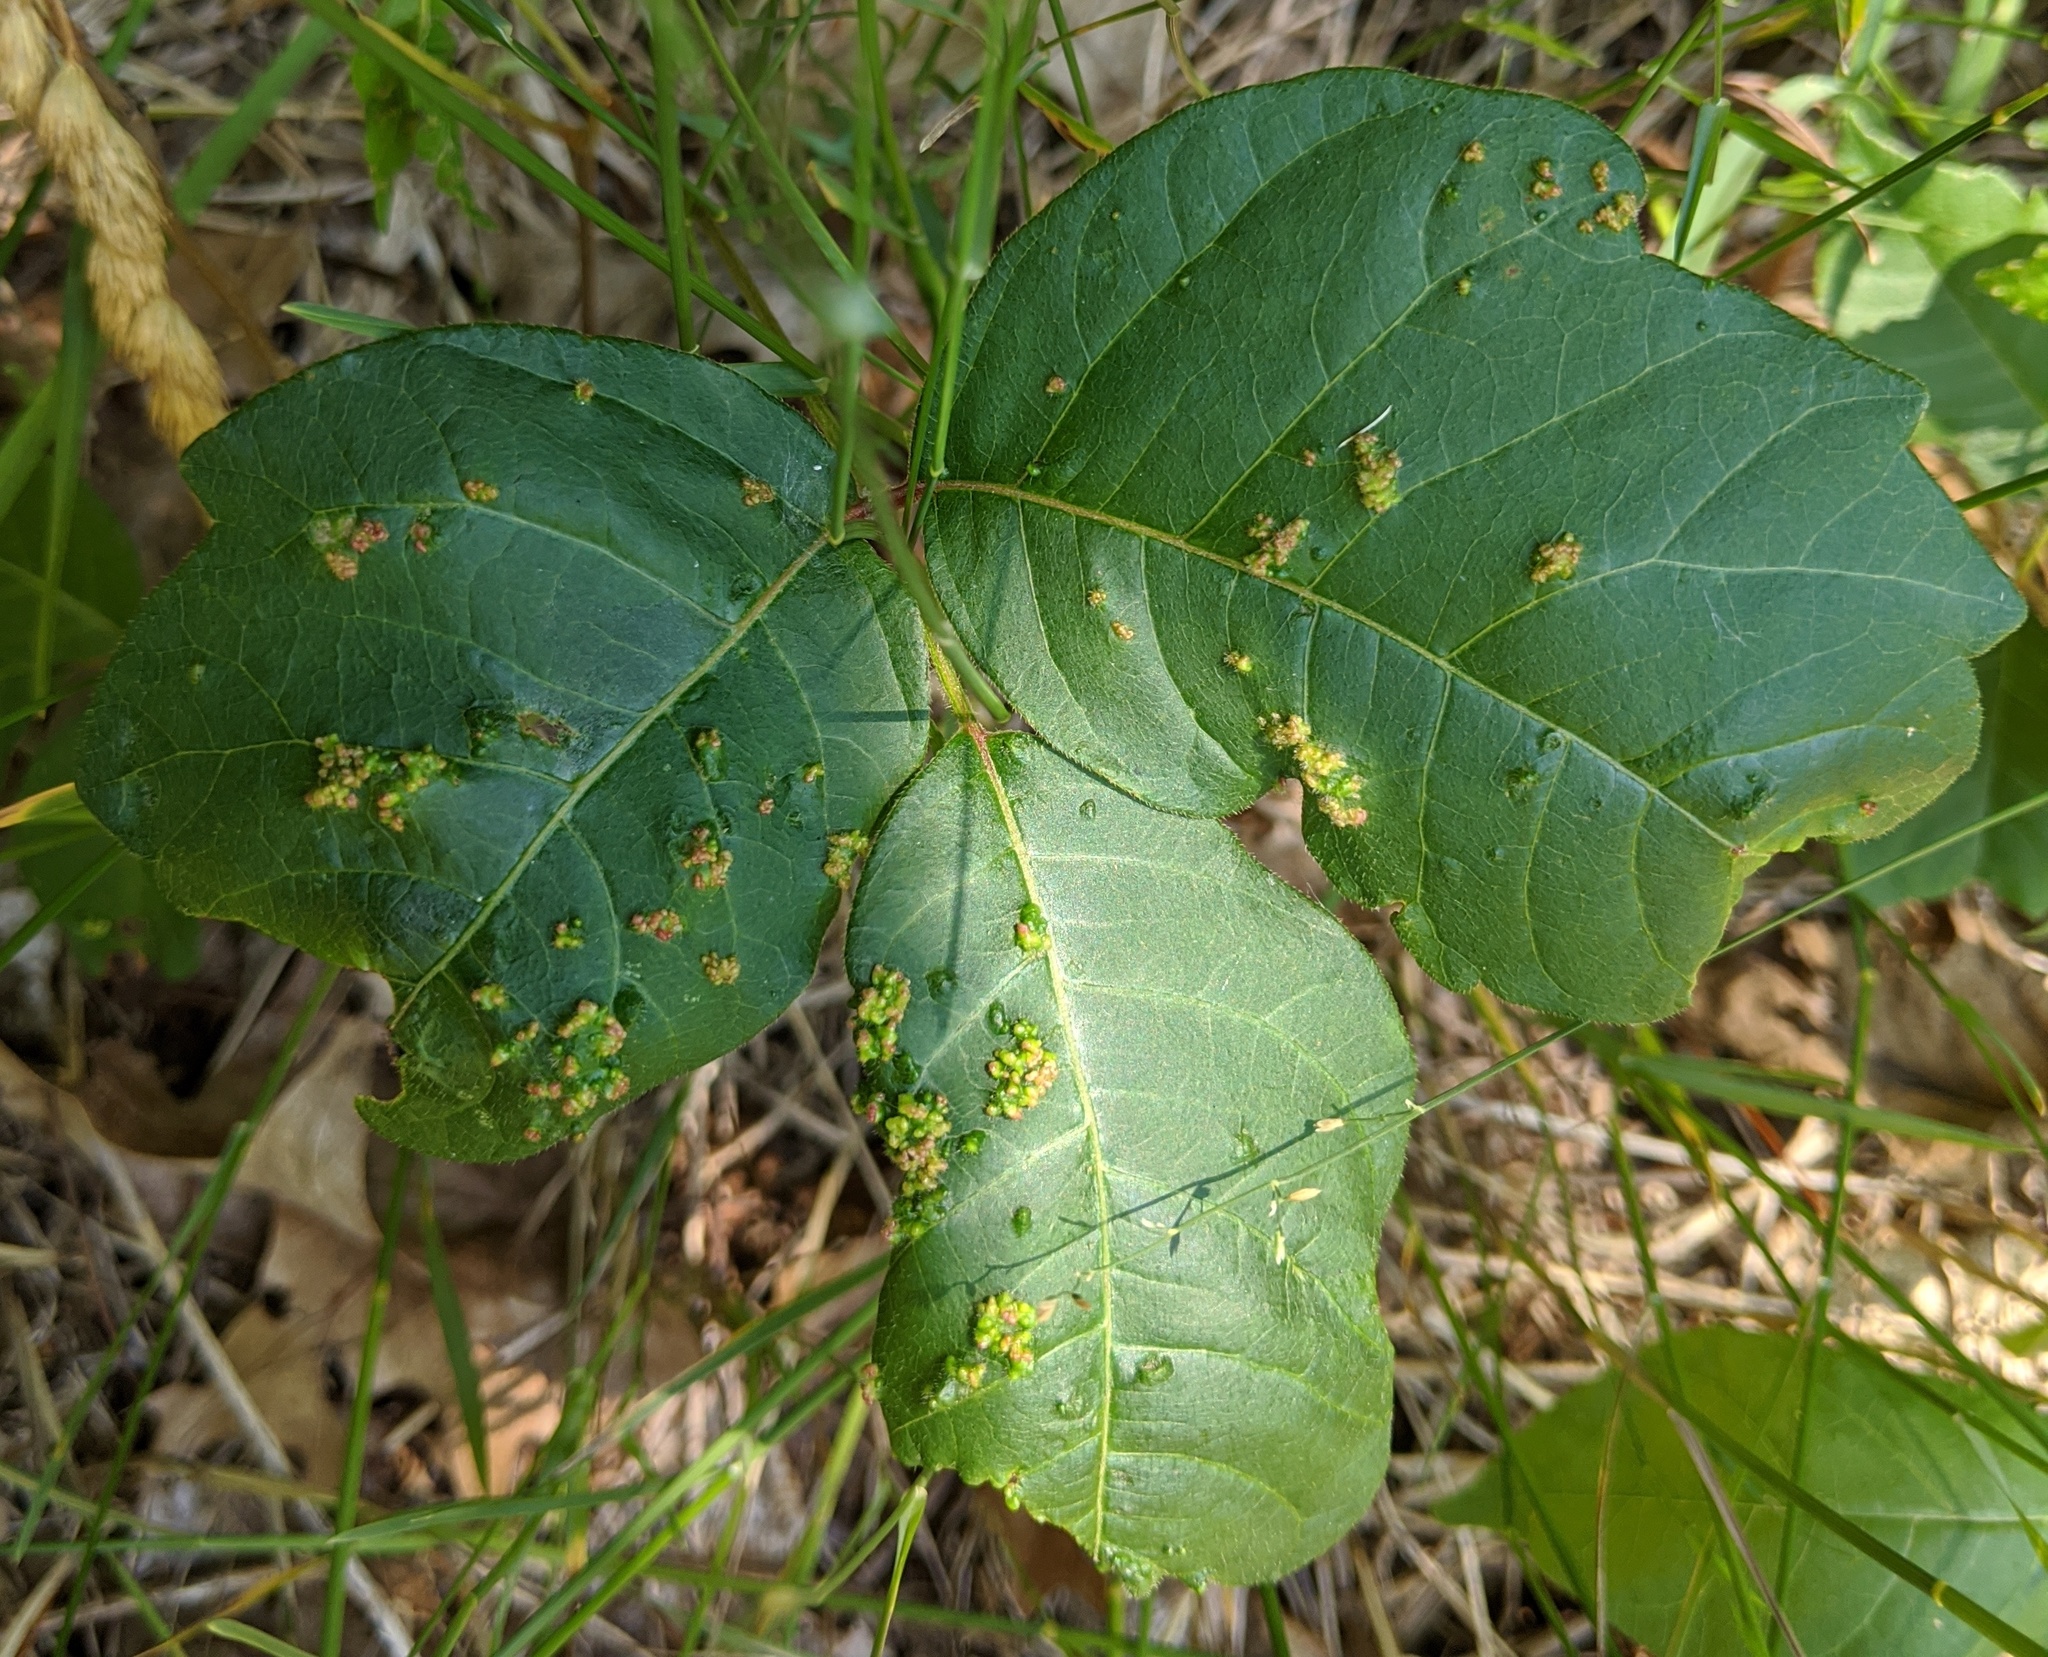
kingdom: Animalia
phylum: Arthropoda
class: Arachnida
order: Trombidiformes
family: Eriophyidae
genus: Aculops
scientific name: Aculops
